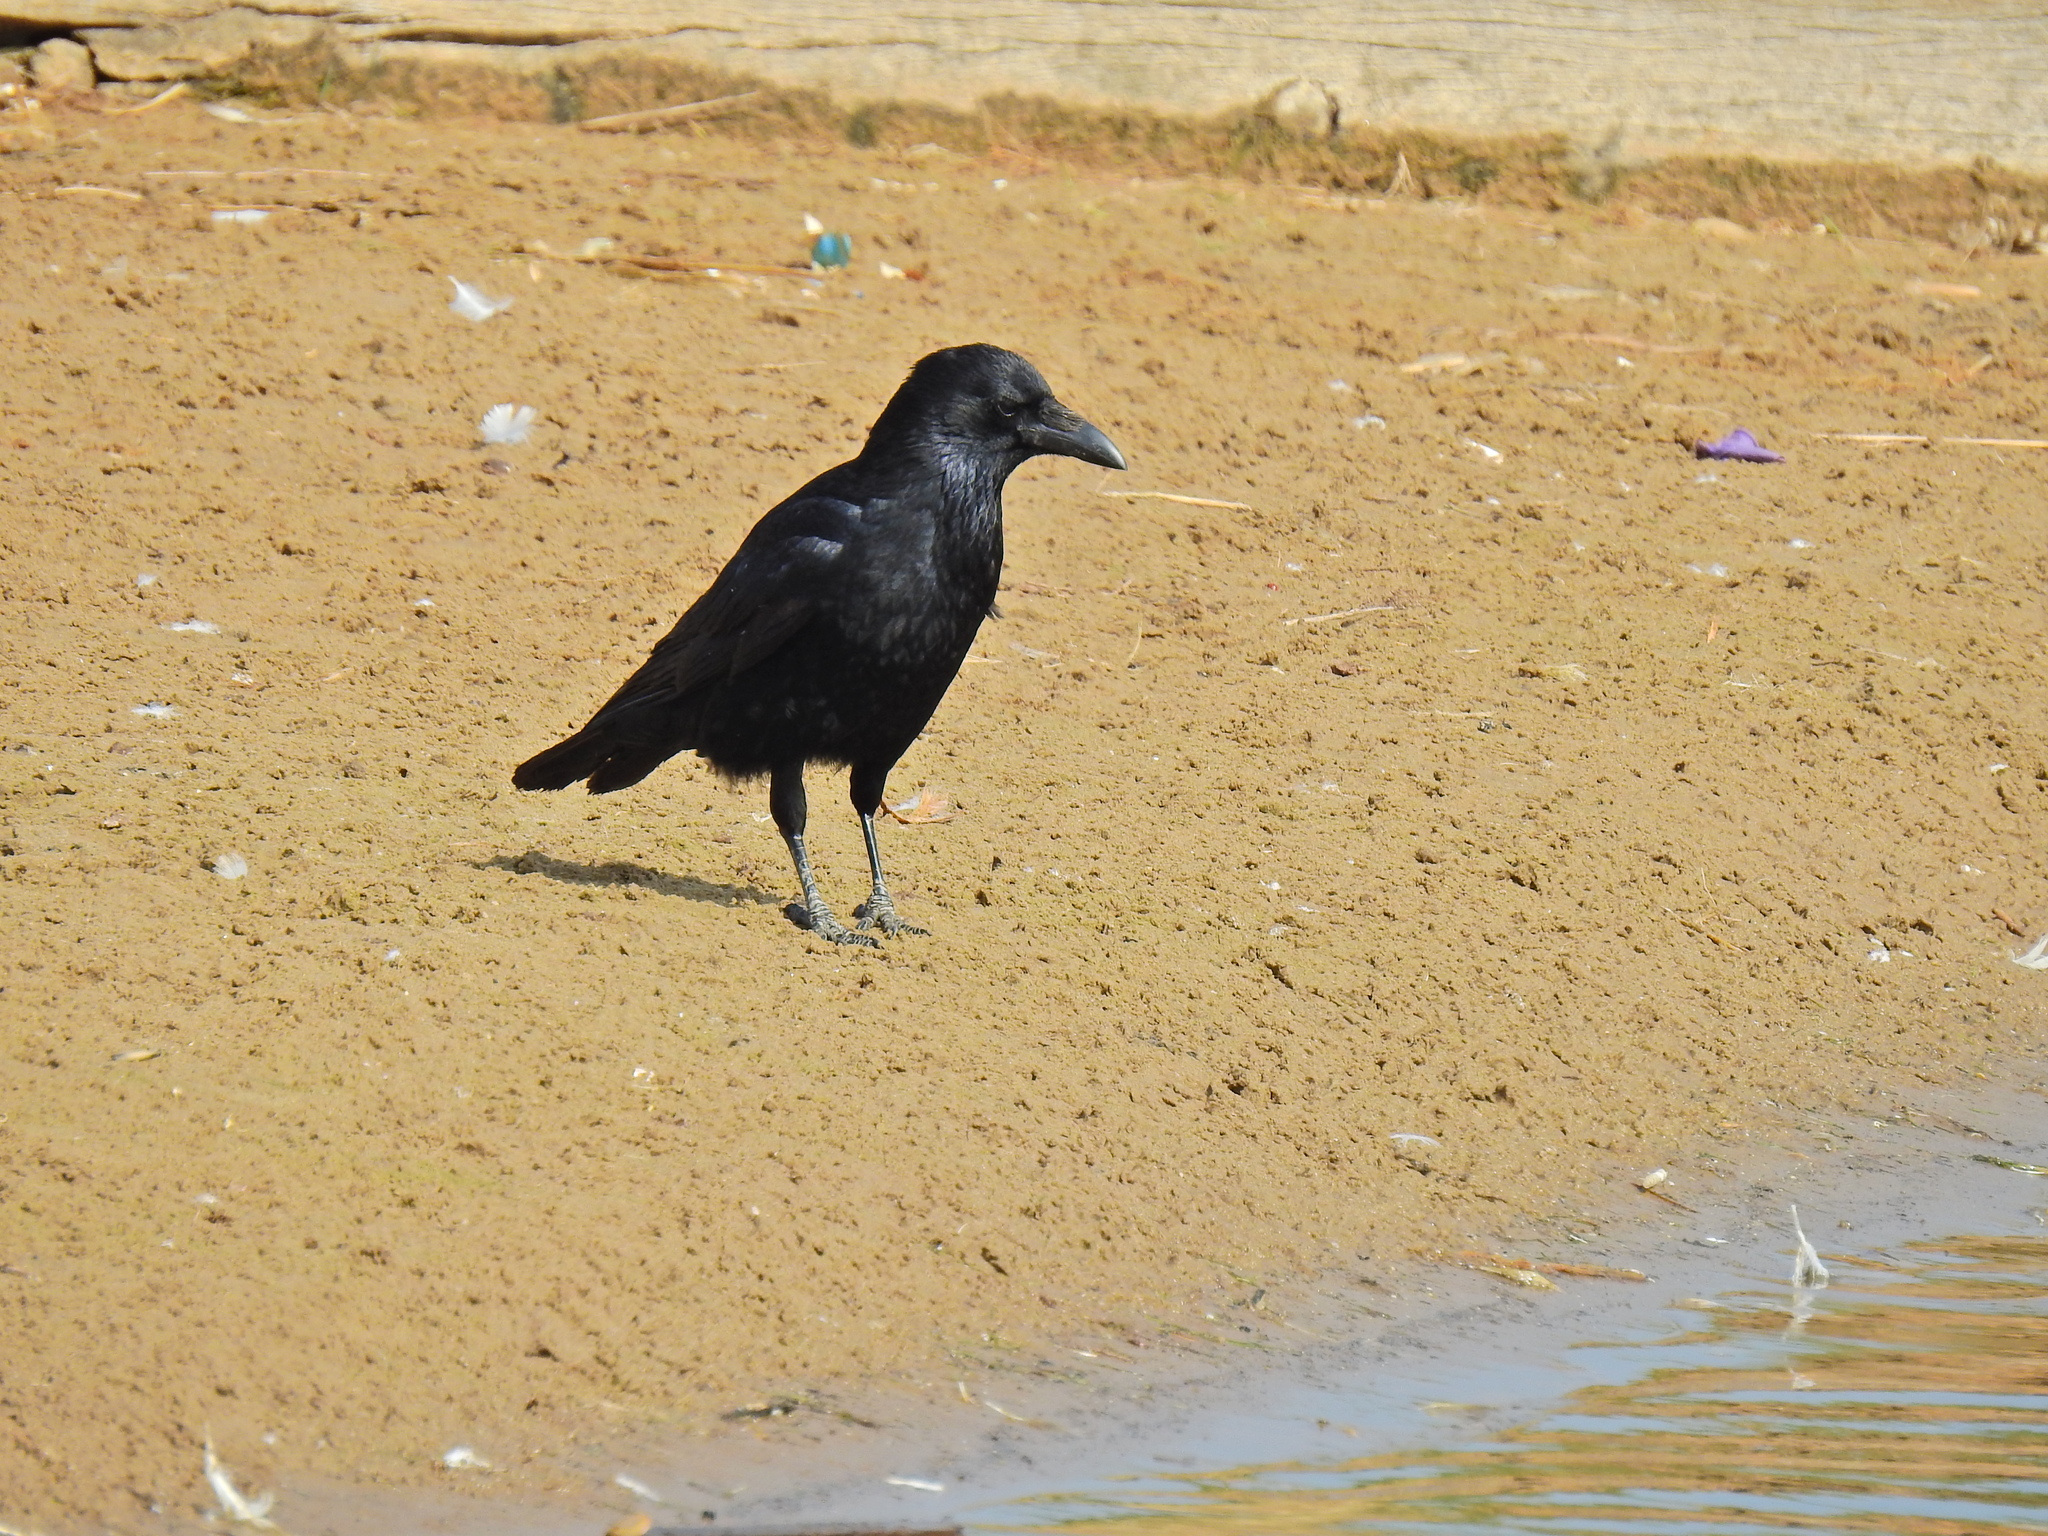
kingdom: Animalia
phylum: Chordata
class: Aves
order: Passeriformes
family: Corvidae
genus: Corvus
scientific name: Corvus corone
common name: Carrion crow
